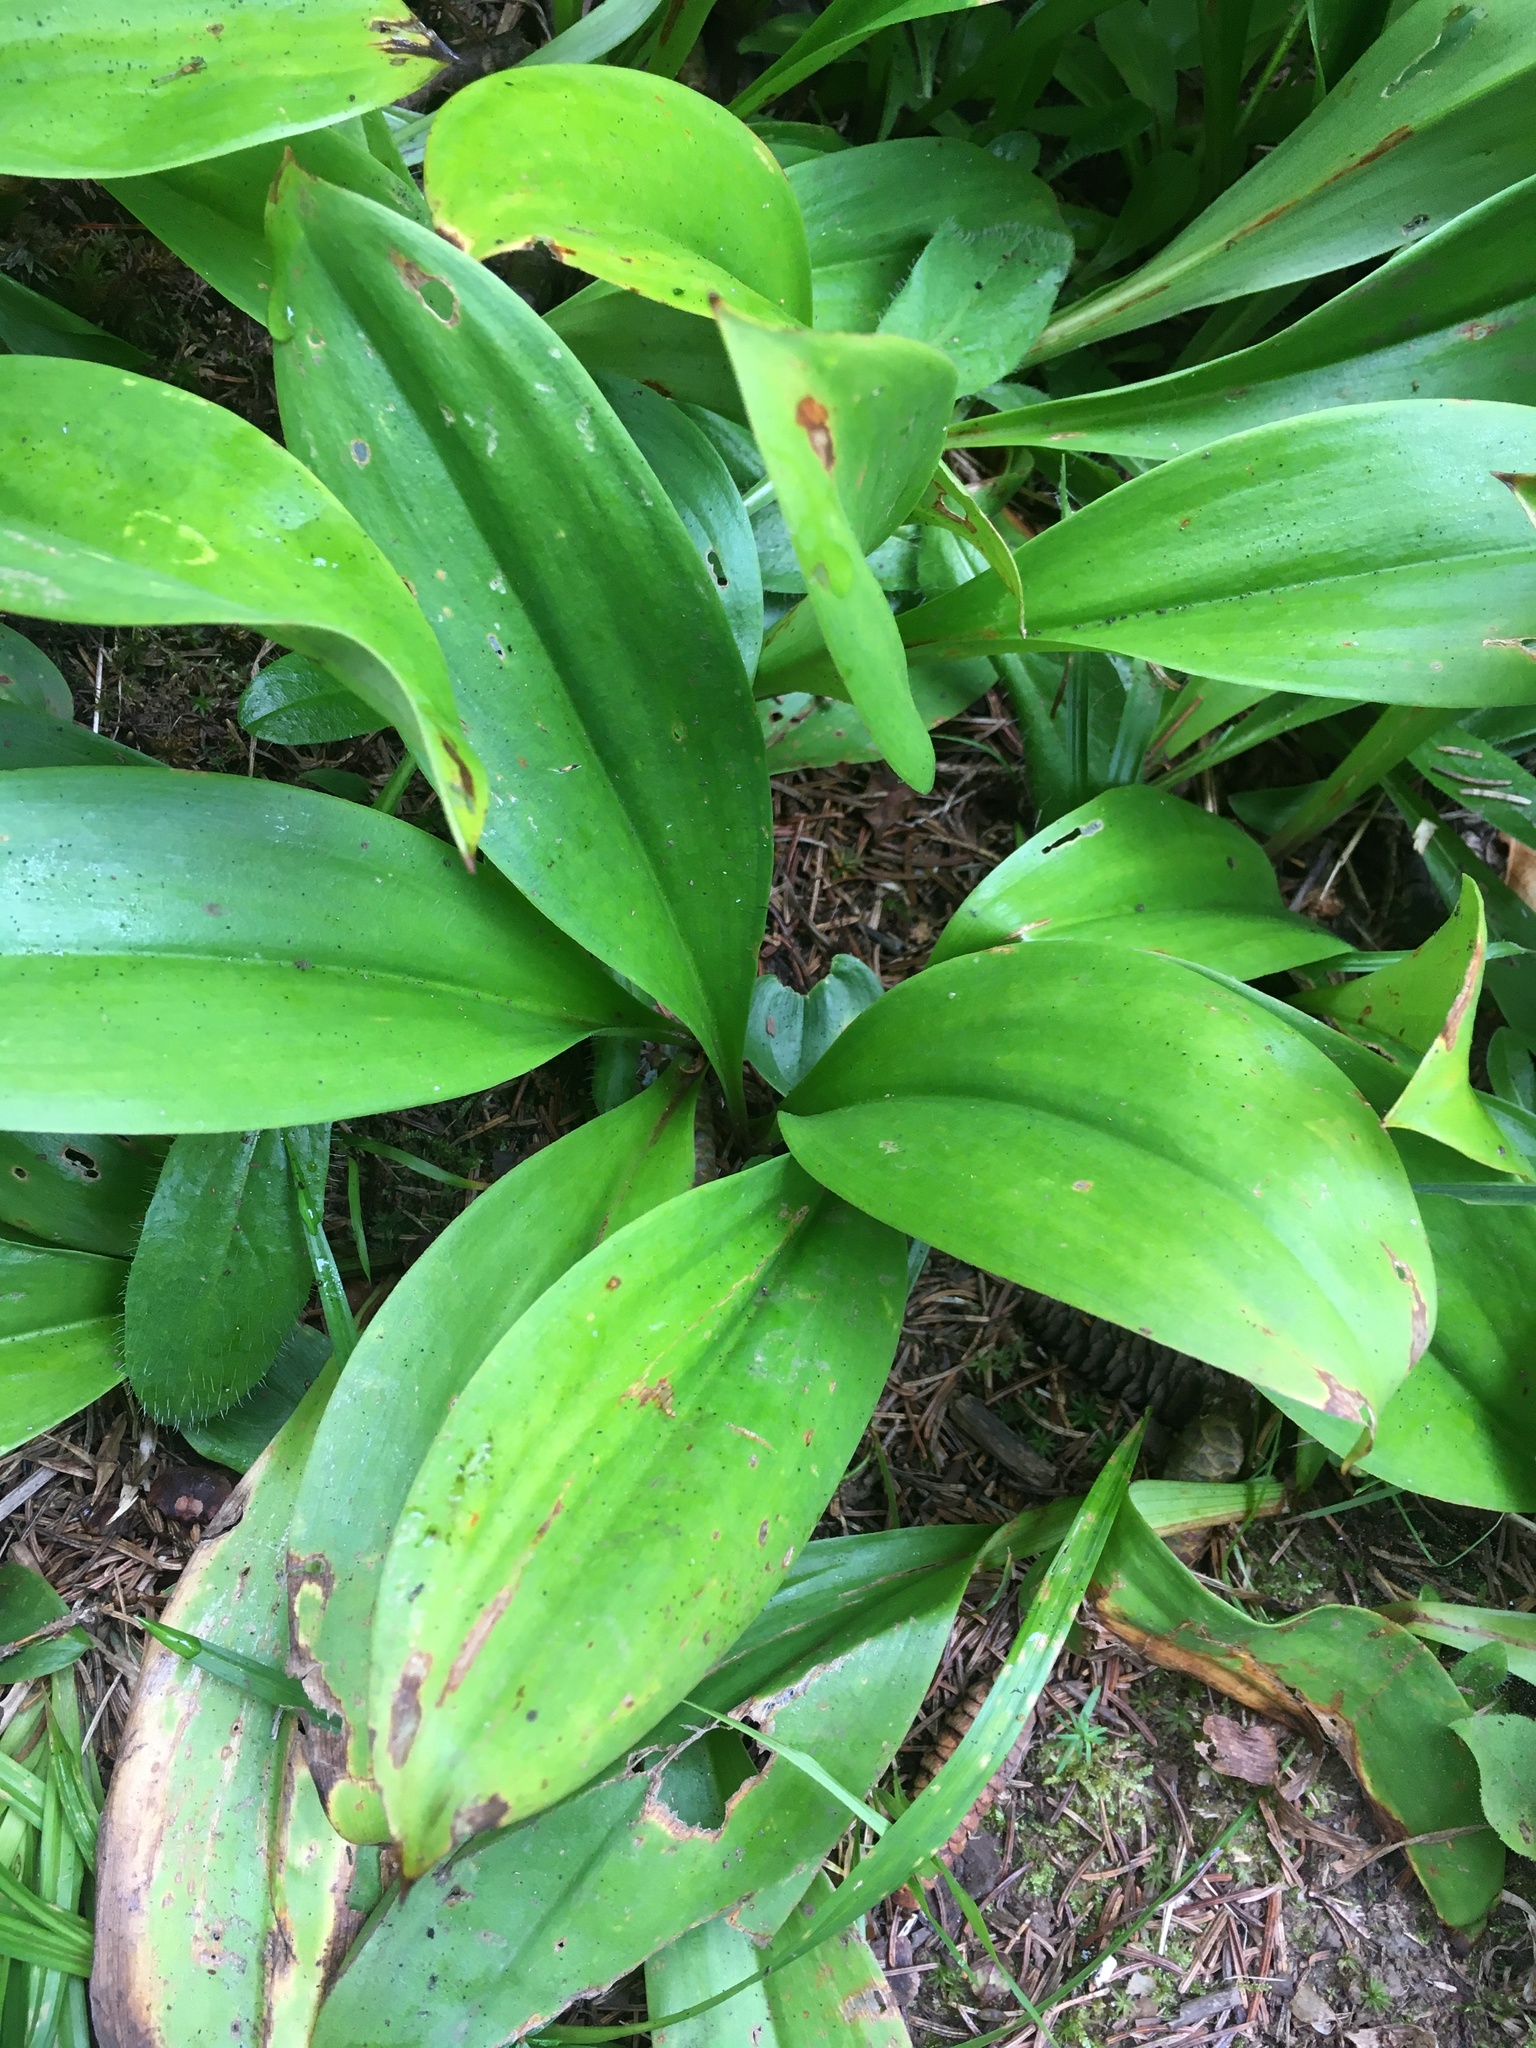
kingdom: Plantae
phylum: Tracheophyta
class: Liliopsida
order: Liliales
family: Liliaceae
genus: Clintonia
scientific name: Clintonia borealis
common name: Yellow clintonia
